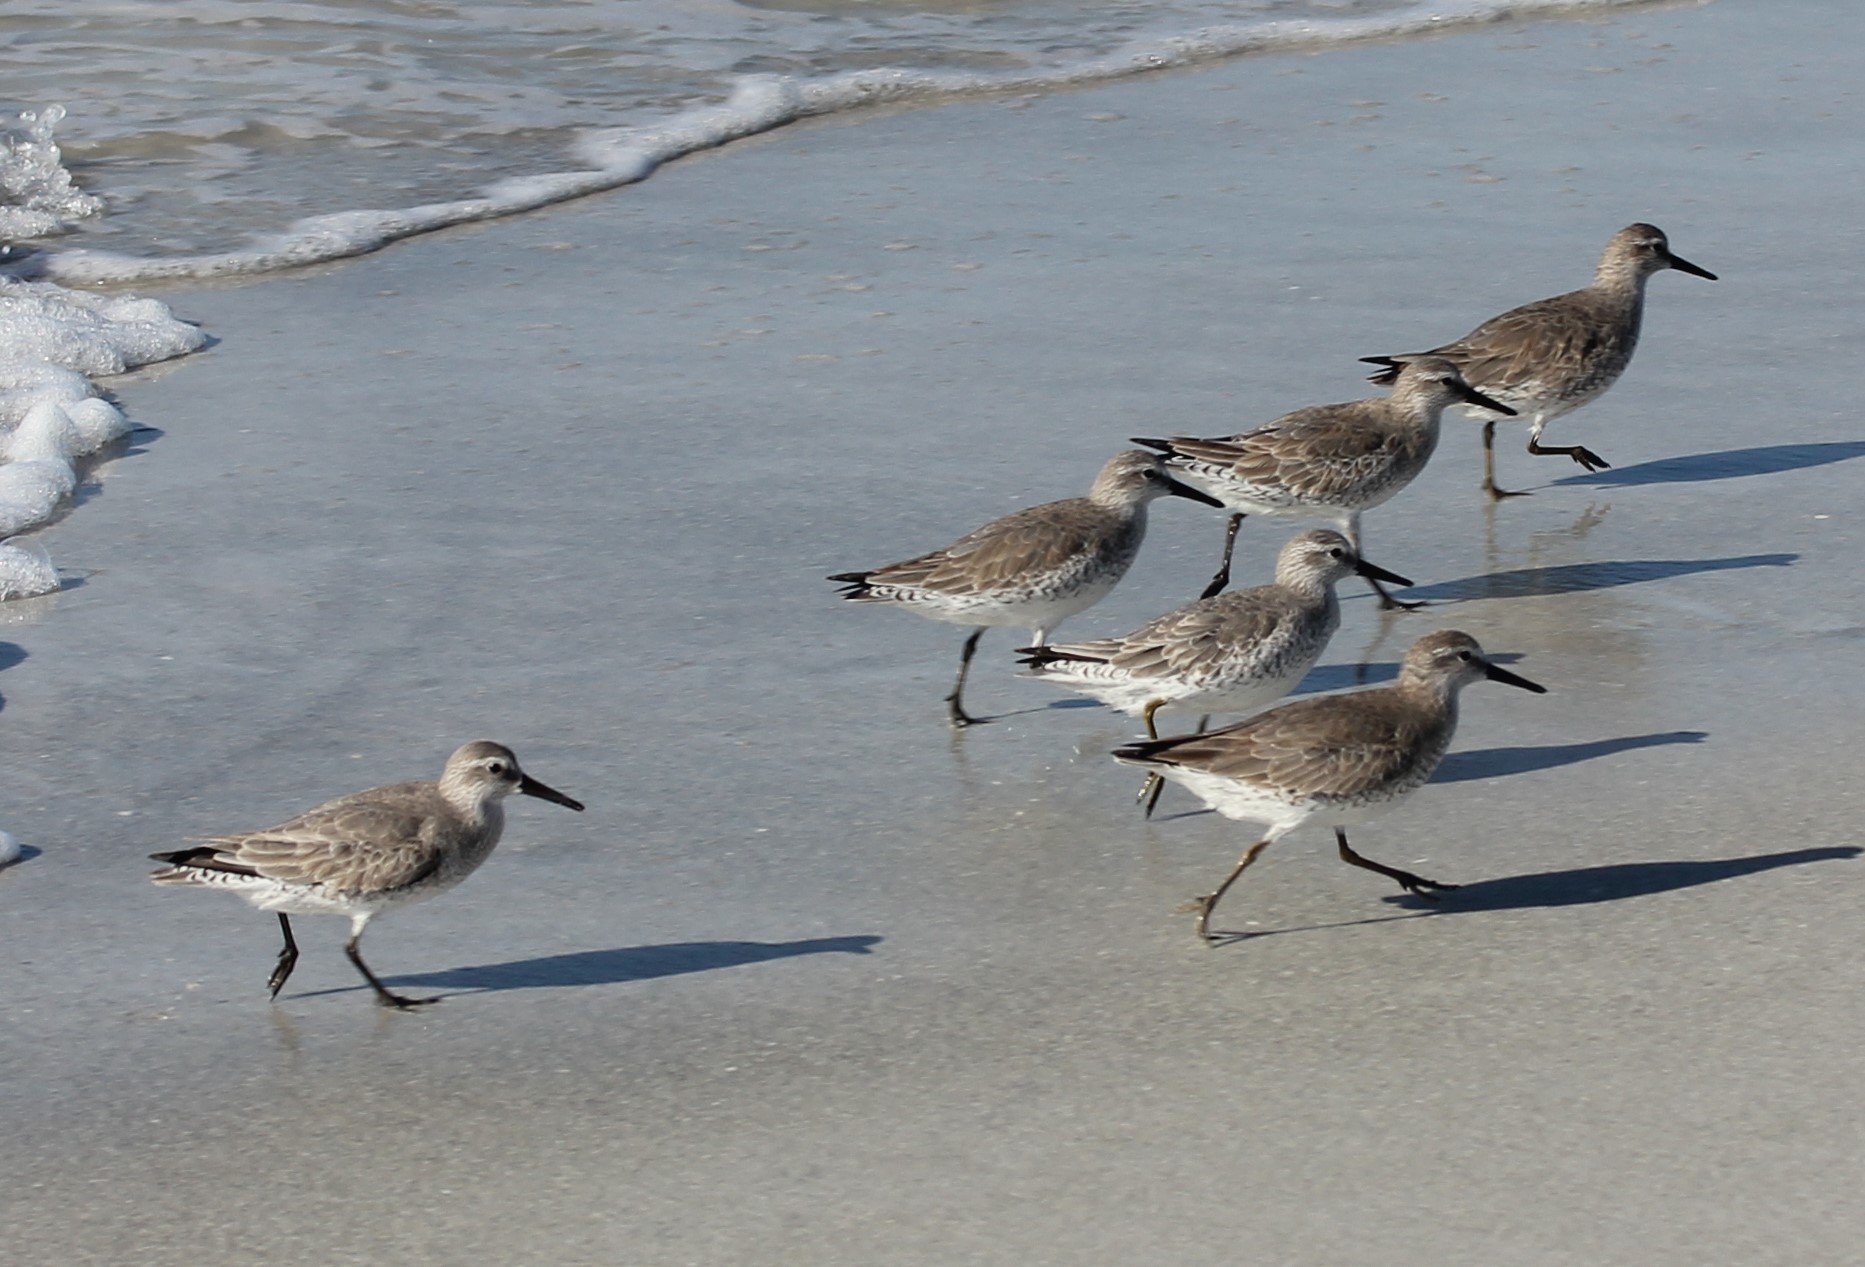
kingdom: Animalia
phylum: Chordata
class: Aves
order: Charadriiformes
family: Scolopacidae
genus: Calidris
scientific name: Calidris canutus
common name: Red knot
